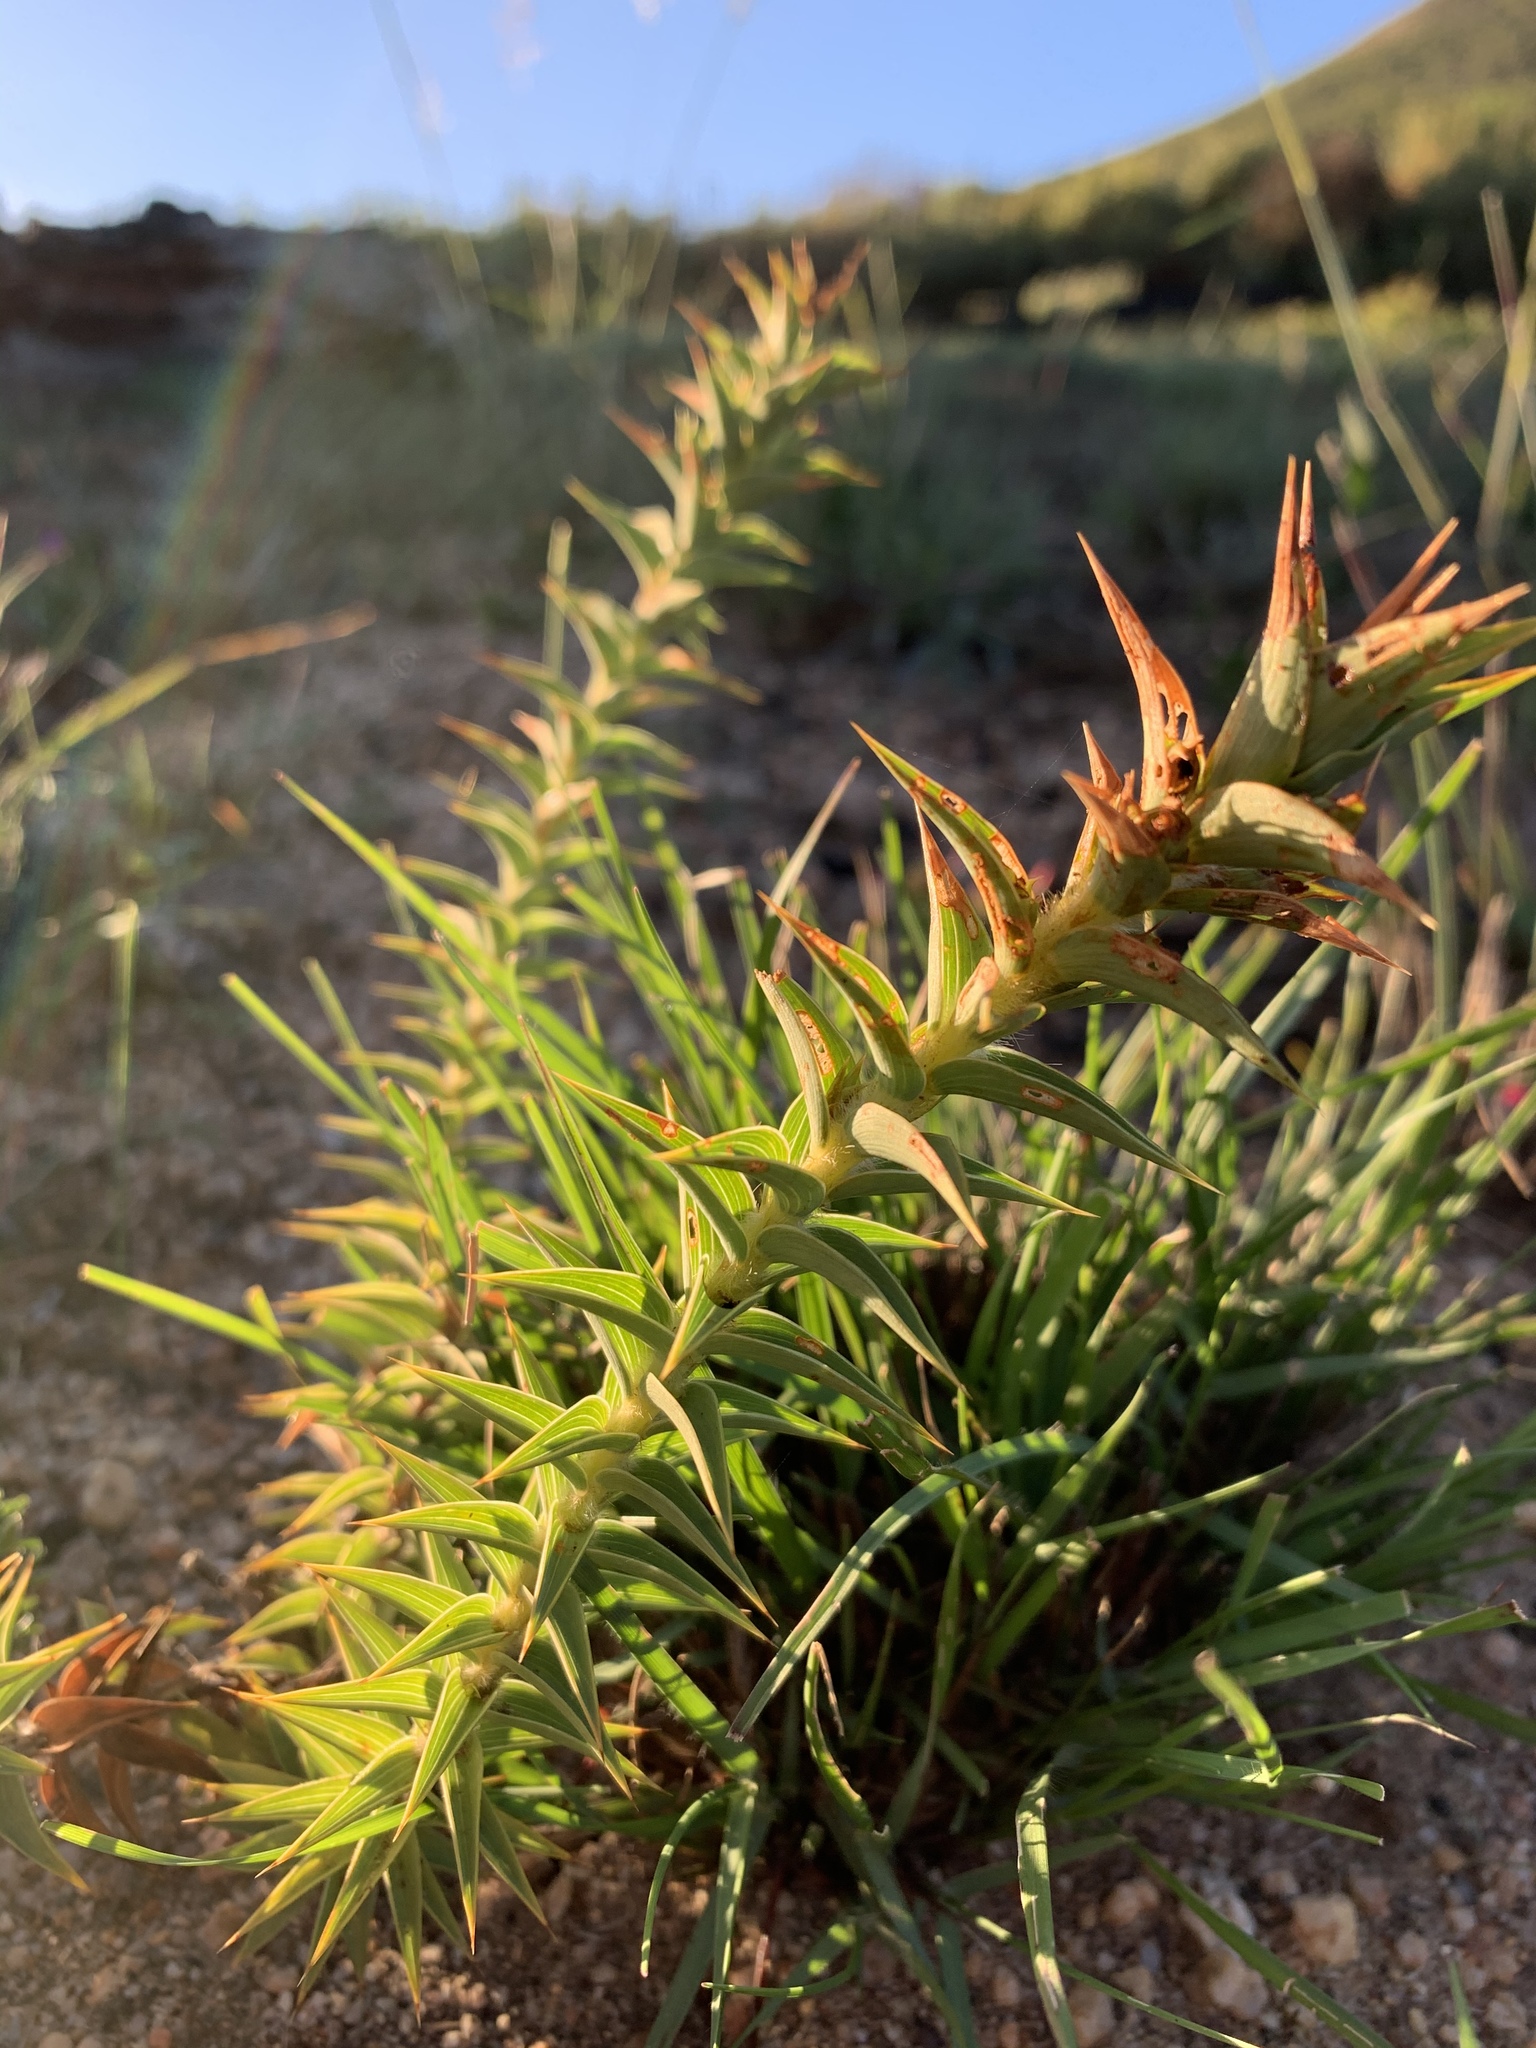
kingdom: Plantae
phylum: Tracheophyta
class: Magnoliopsida
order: Fabales
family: Fabaceae
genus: Aspalathus
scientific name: Aspalathus cordata
